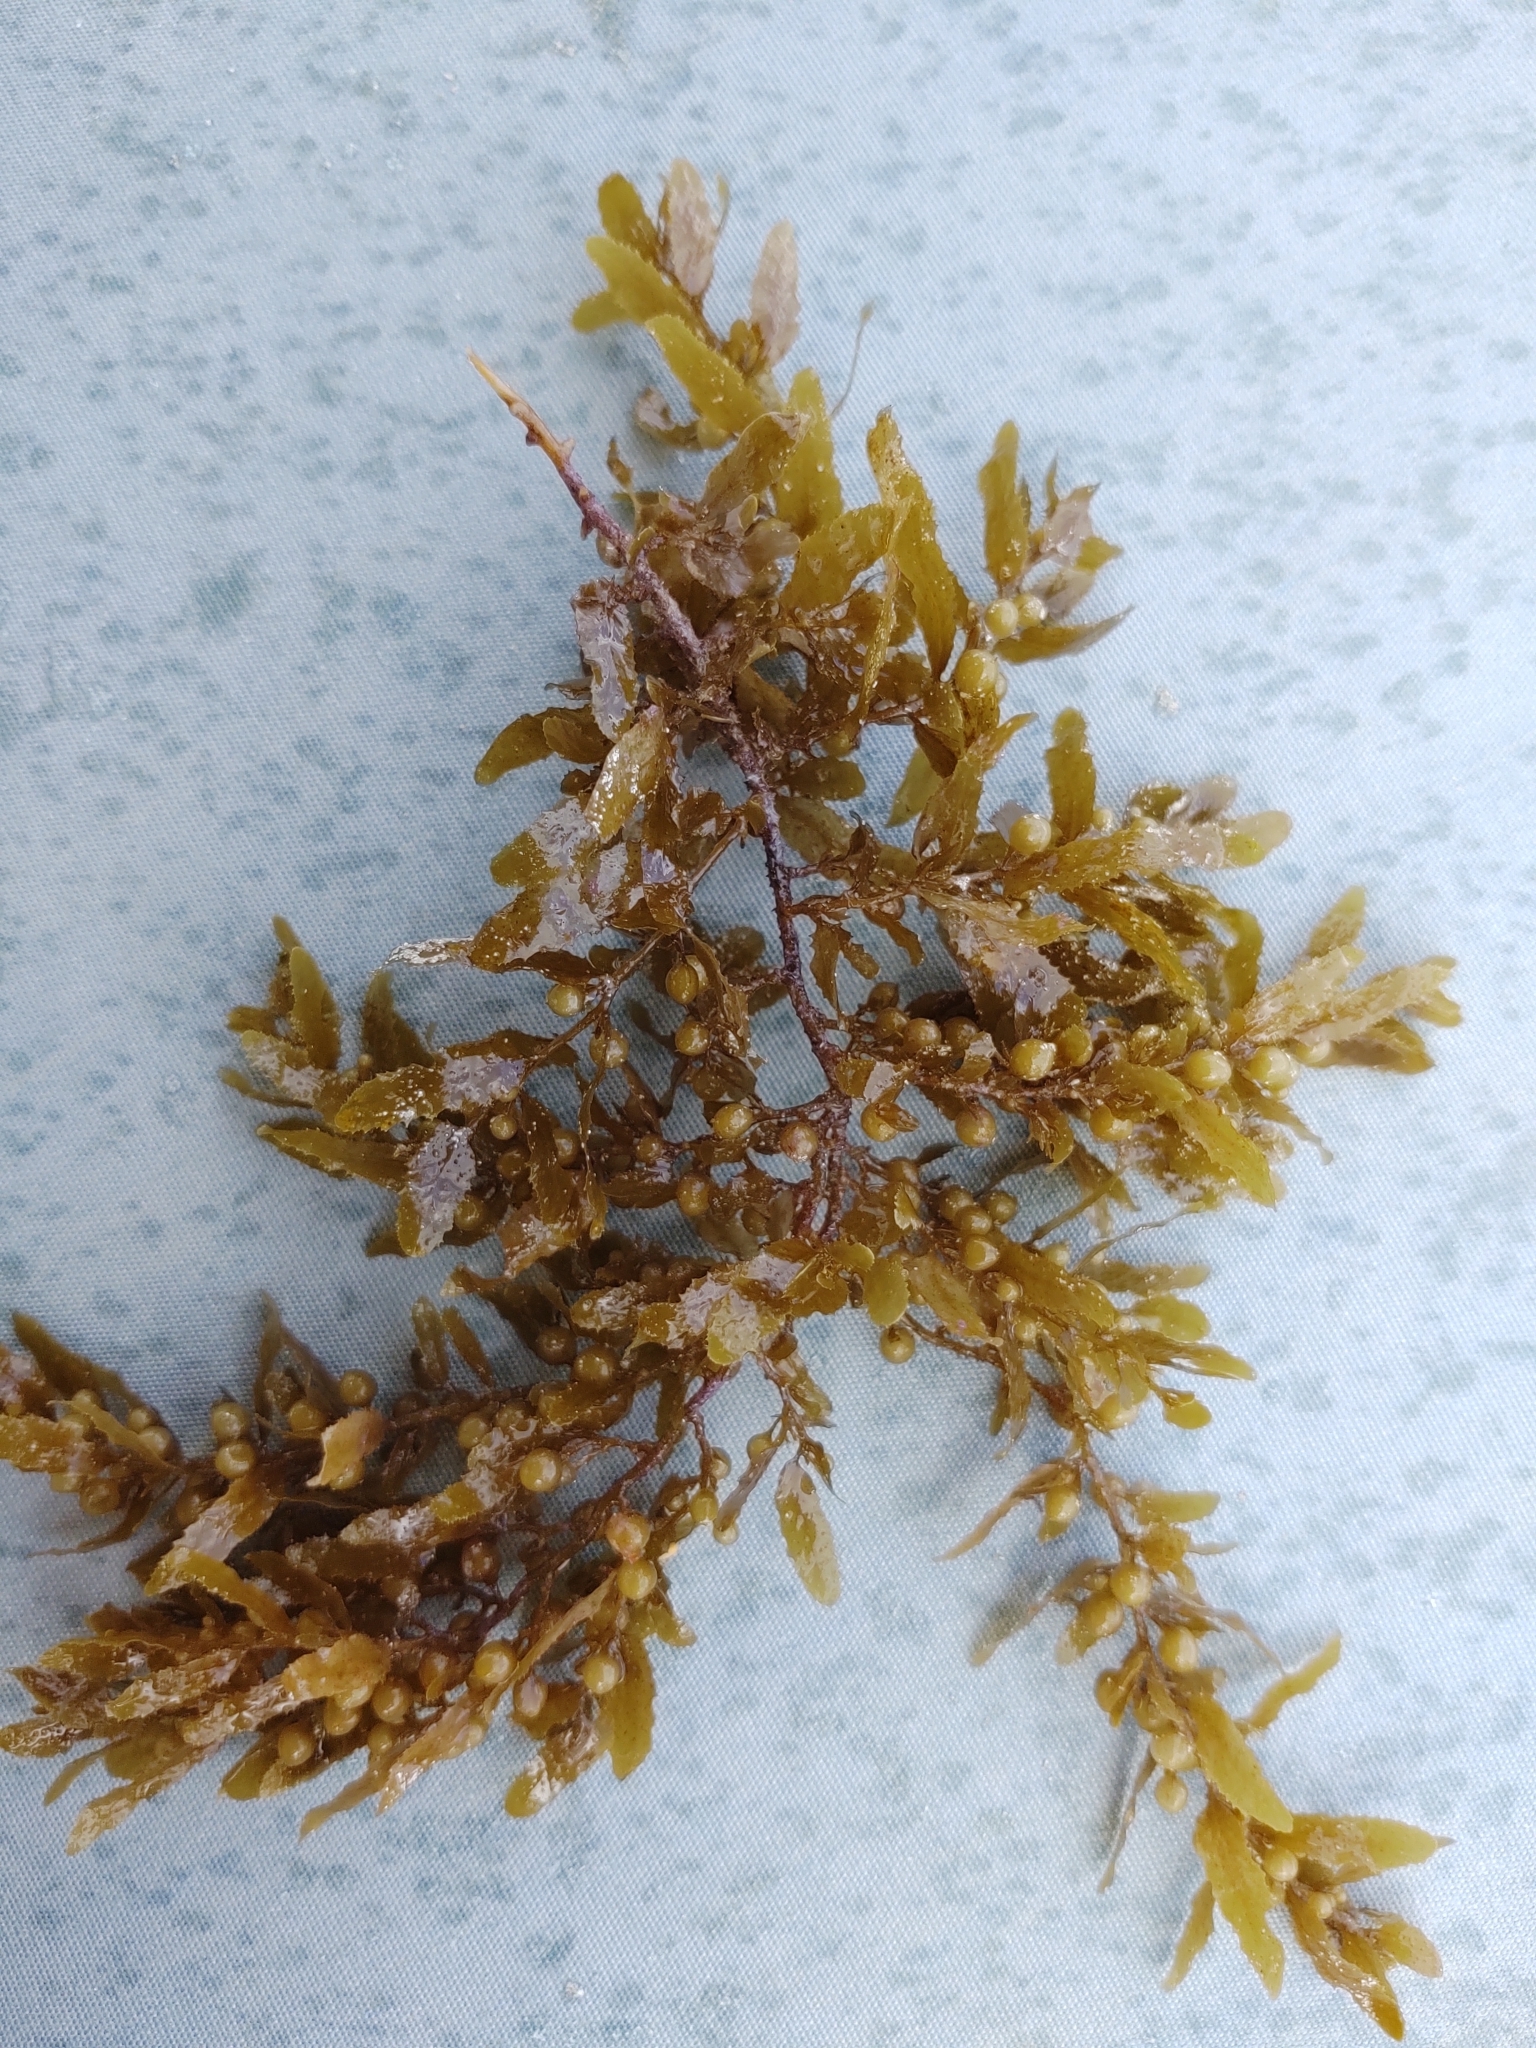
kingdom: Chromista
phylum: Ochrophyta
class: Phaeophyceae
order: Fucales
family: Sargassaceae
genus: Sargassum
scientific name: Sargassum fluitans
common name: Sargassum seaweed
